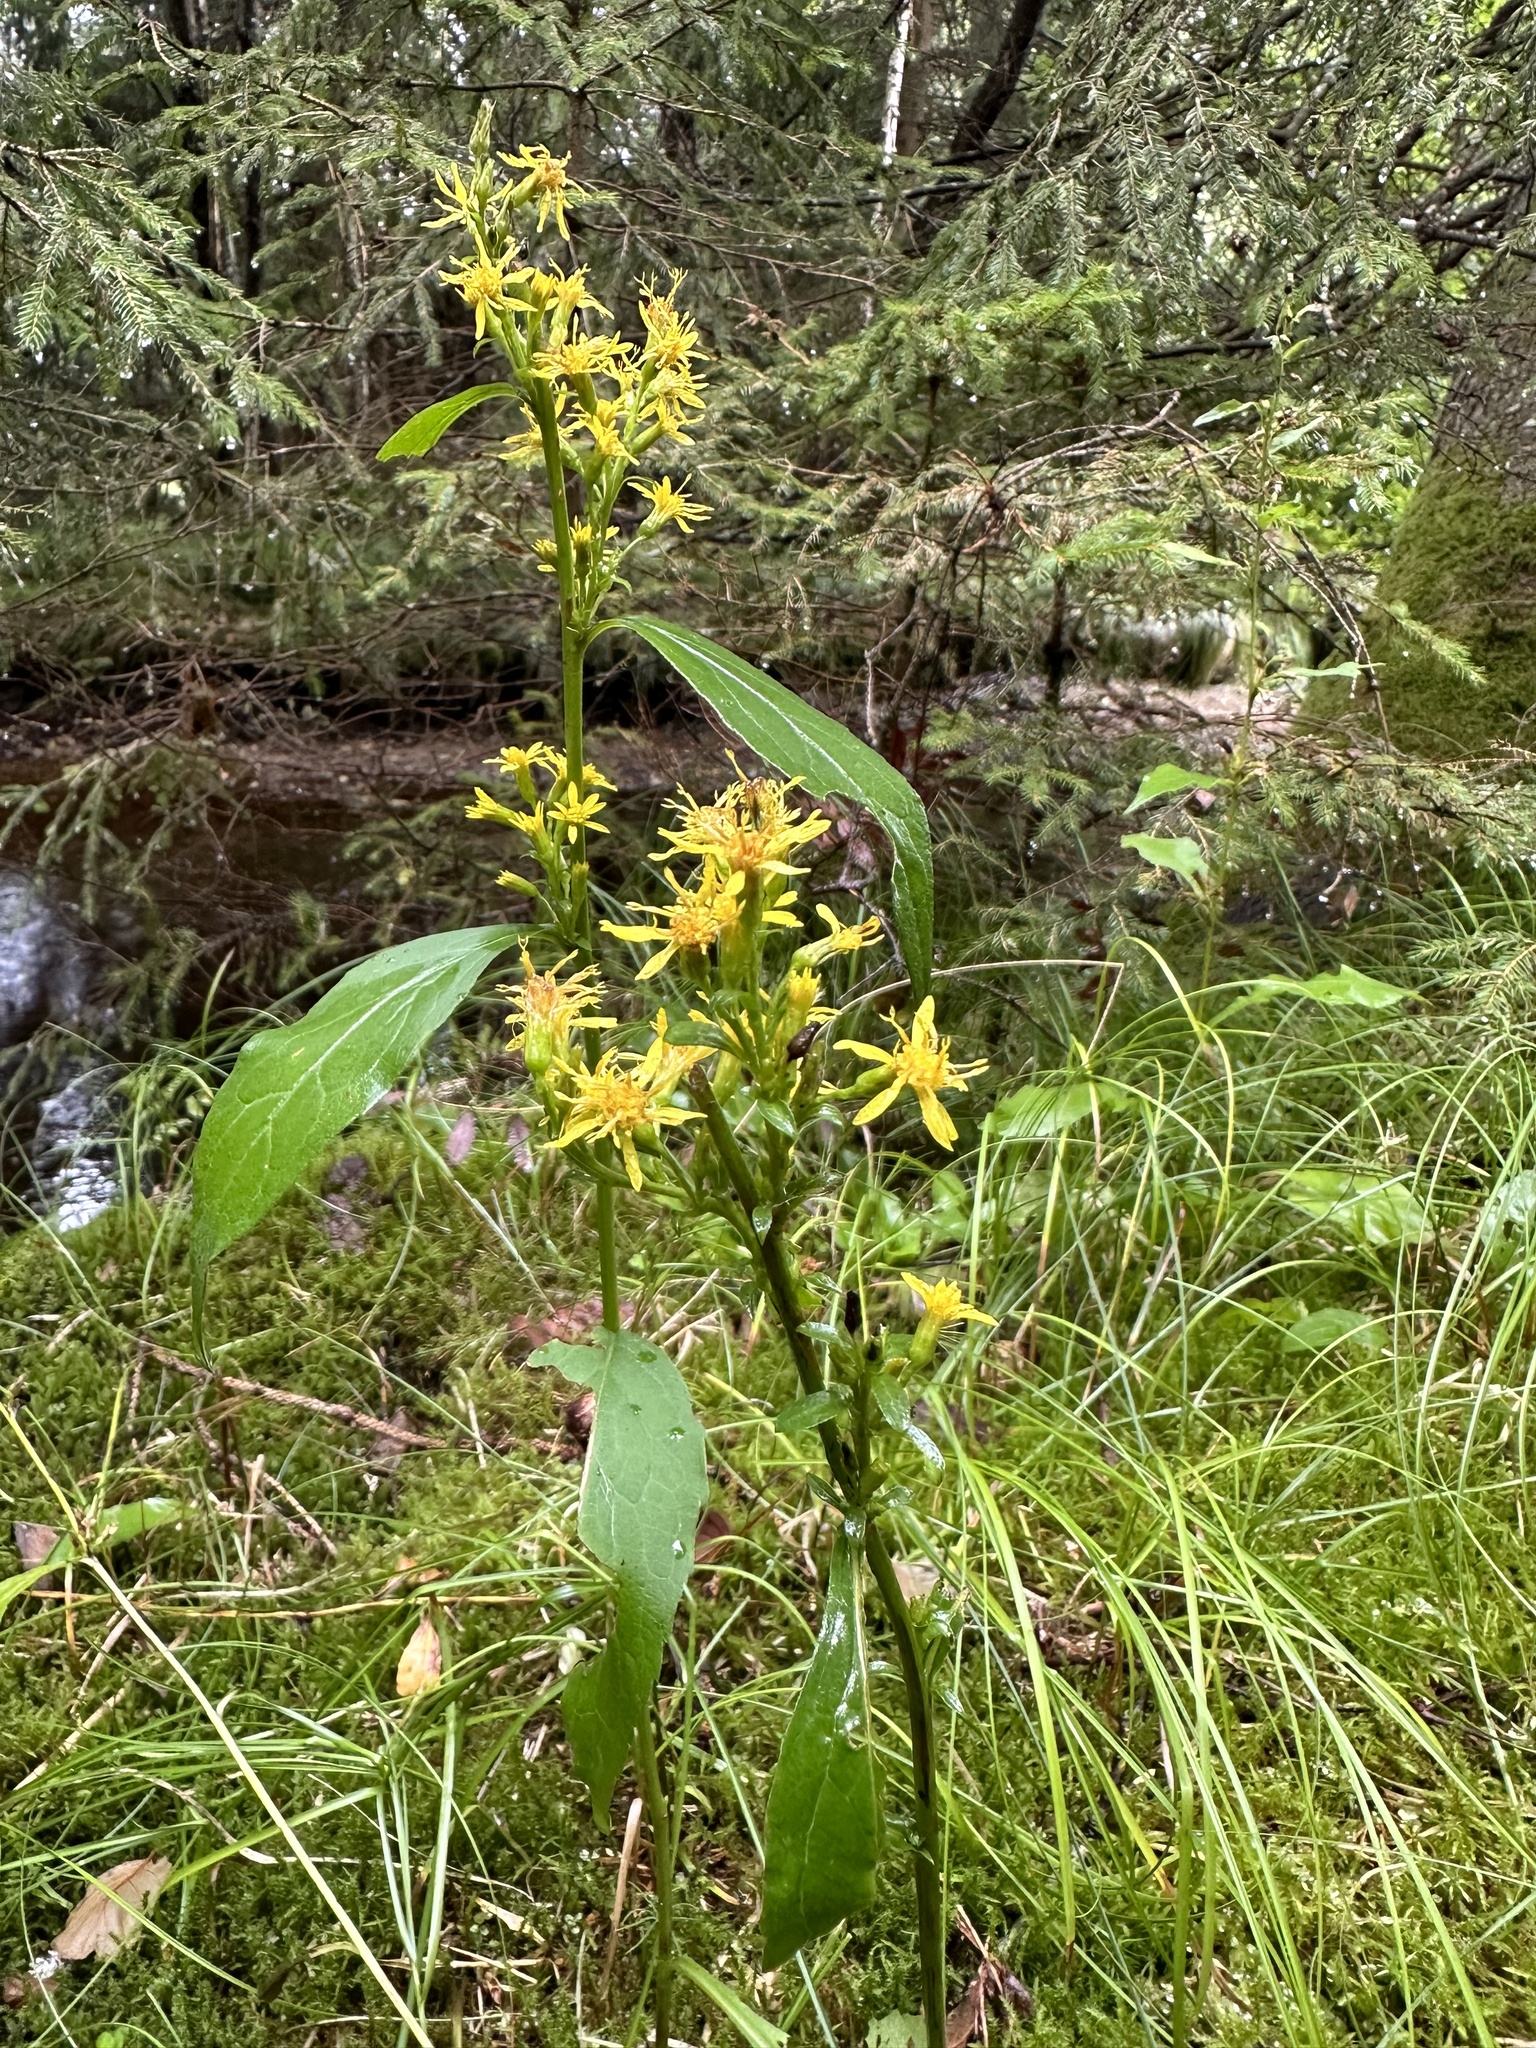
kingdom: Plantae
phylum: Tracheophyta
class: Magnoliopsida
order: Asterales
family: Asteraceae
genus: Solidago
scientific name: Solidago virgaurea
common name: Goldenrod
